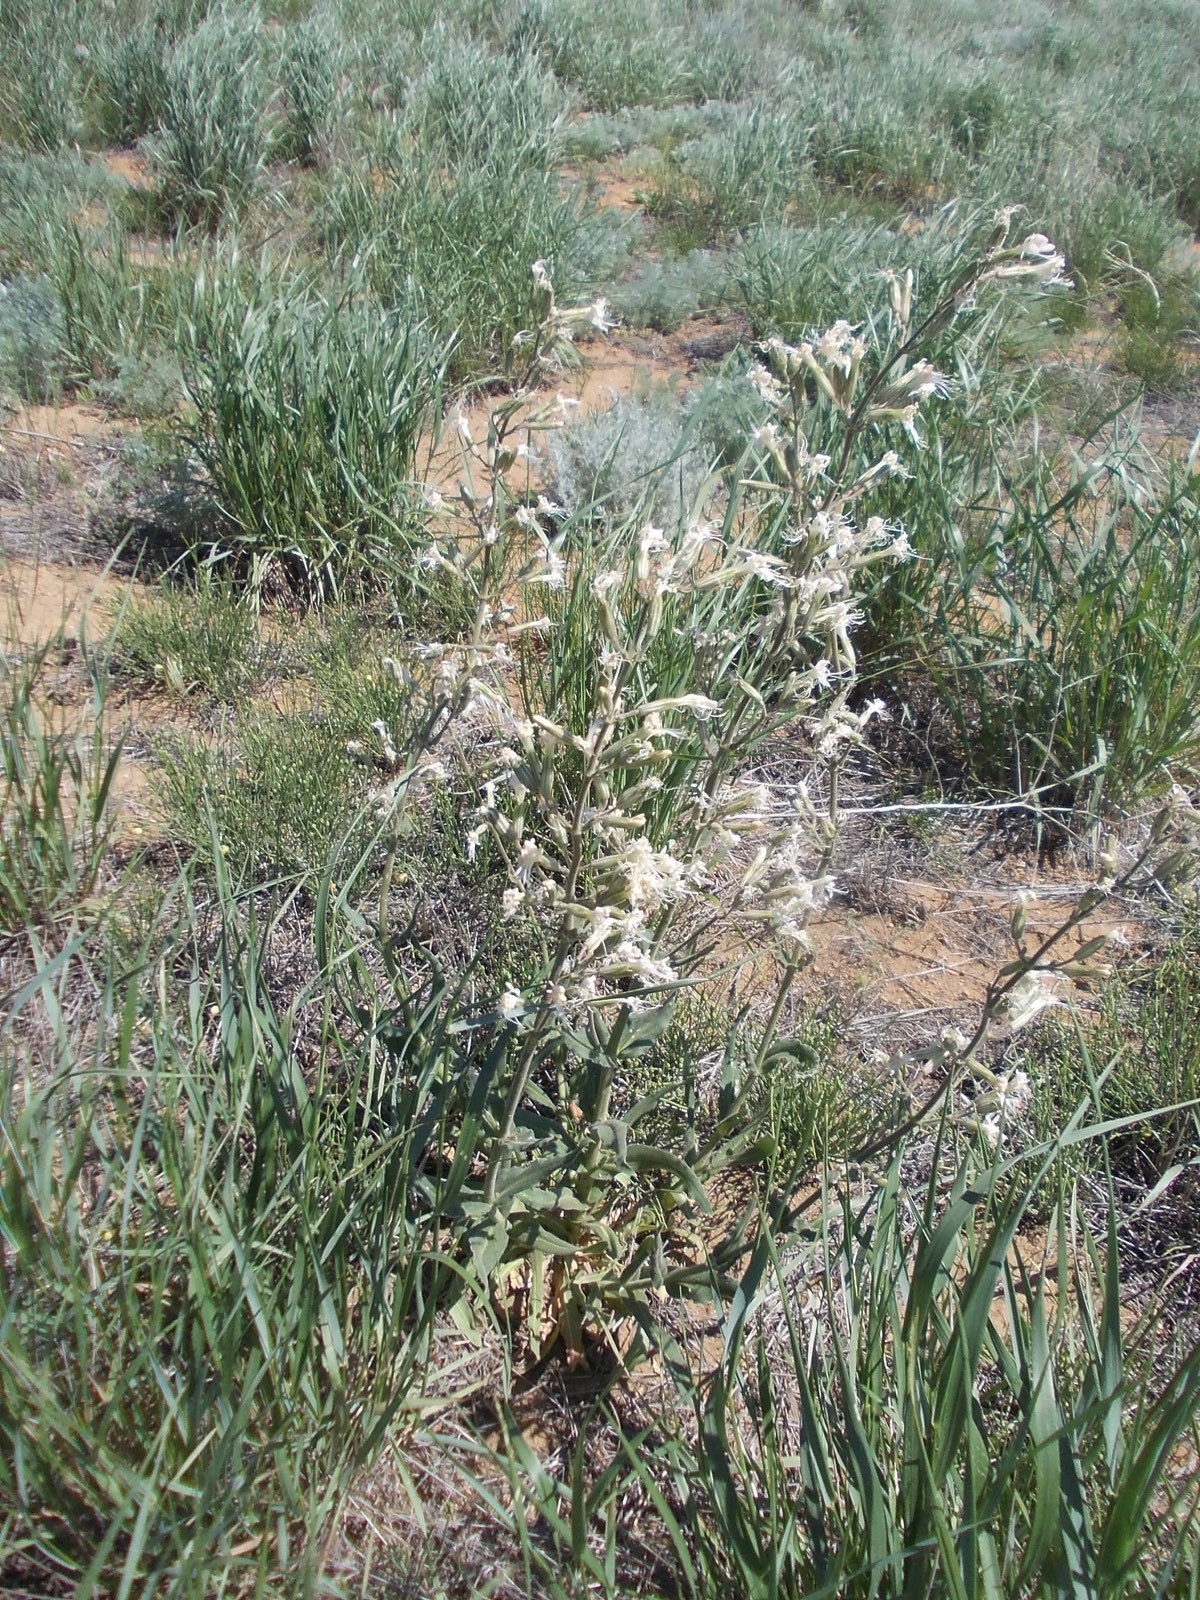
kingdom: Plantae
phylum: Tracheophyta
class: Magnoliopsida
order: Caryophyllales
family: Caryophyllaceae
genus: Silene
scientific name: Silene viscosa
